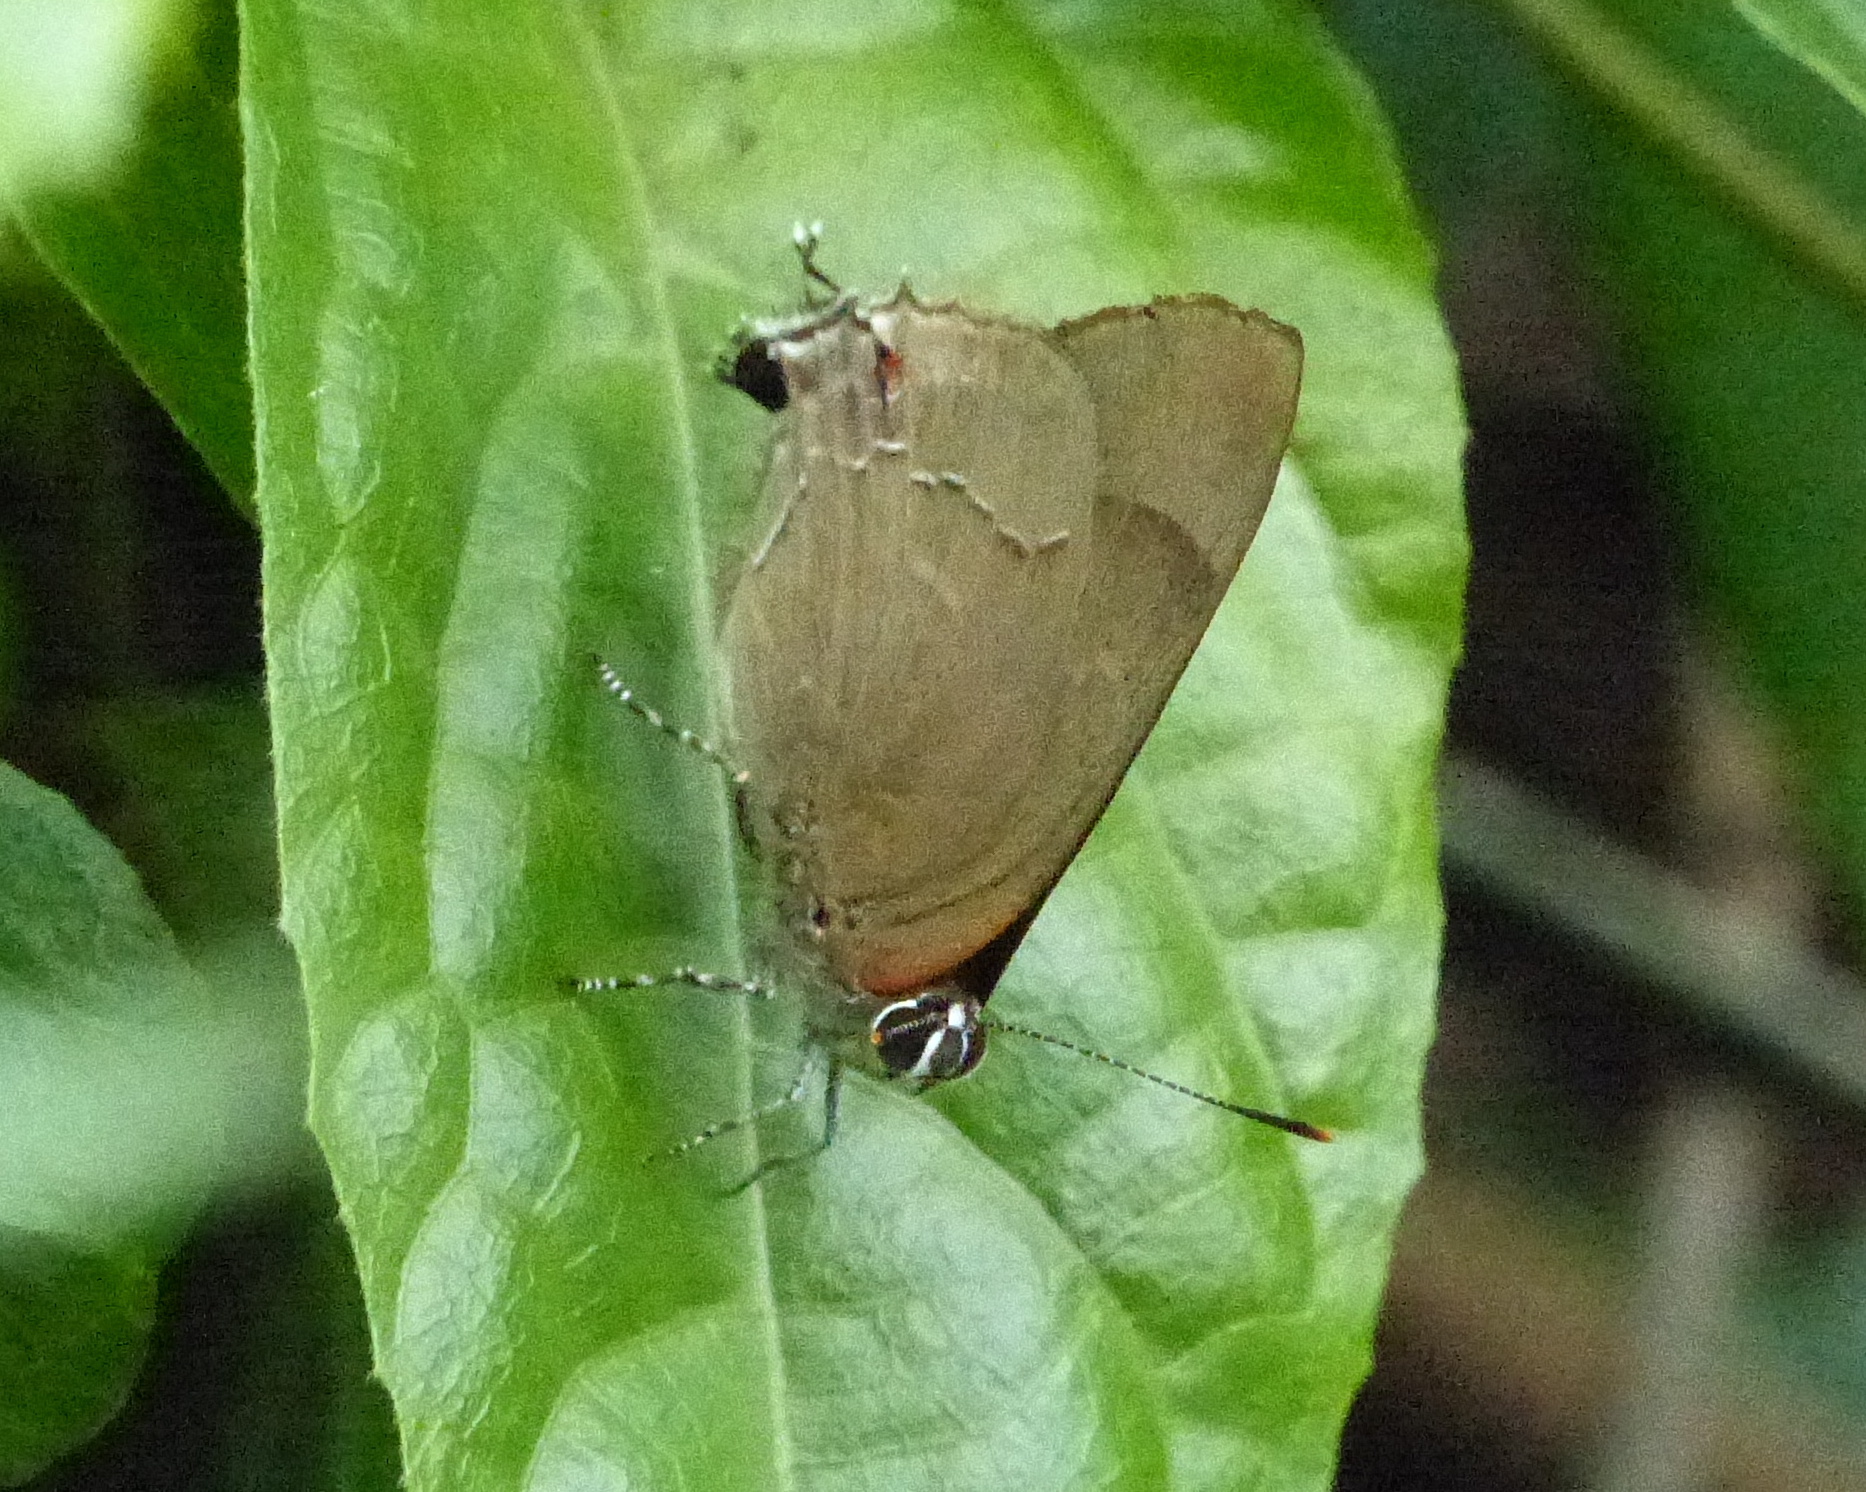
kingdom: Animalia
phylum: Arthropoda
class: Insecta
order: Lepidoptera
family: Lycaenidae
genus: Thecla
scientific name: Thecla spurina
